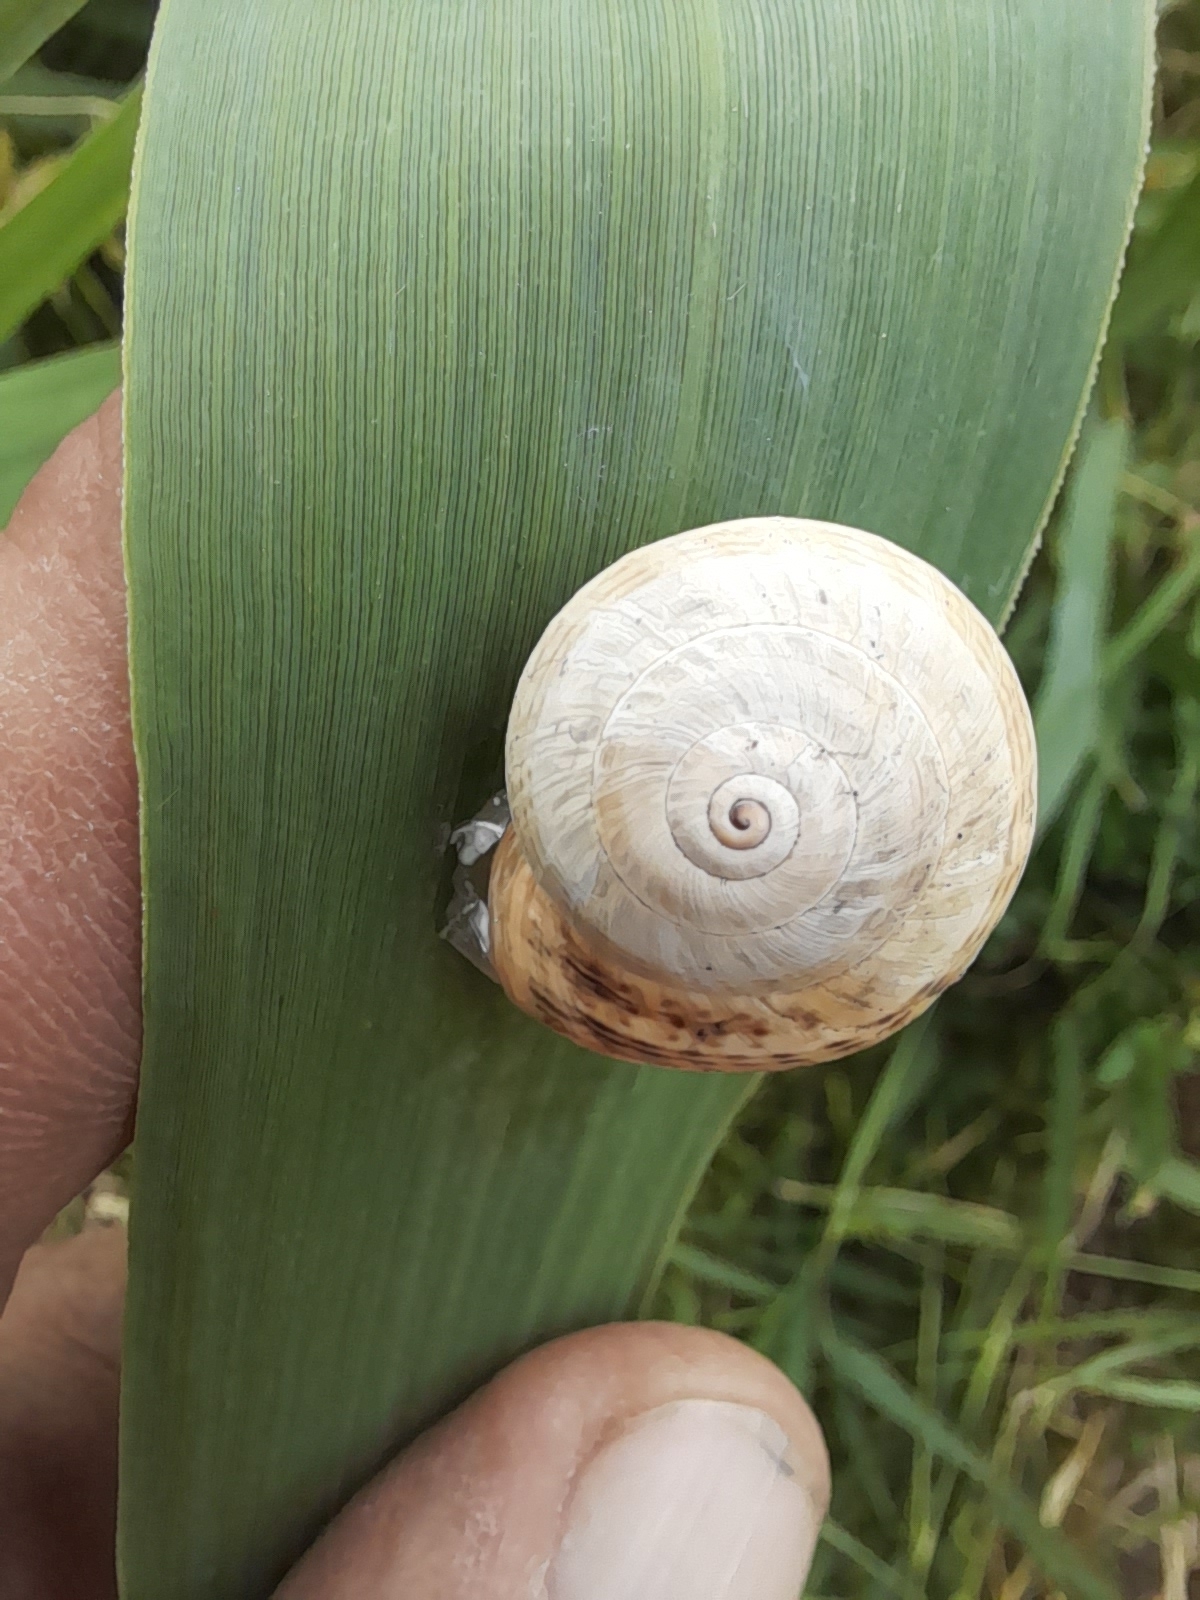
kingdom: Animalia
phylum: Mollusca
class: Gastropoda
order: Stylommatophora
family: Helicidae
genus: Theba
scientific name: Theba pisana
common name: White snail
